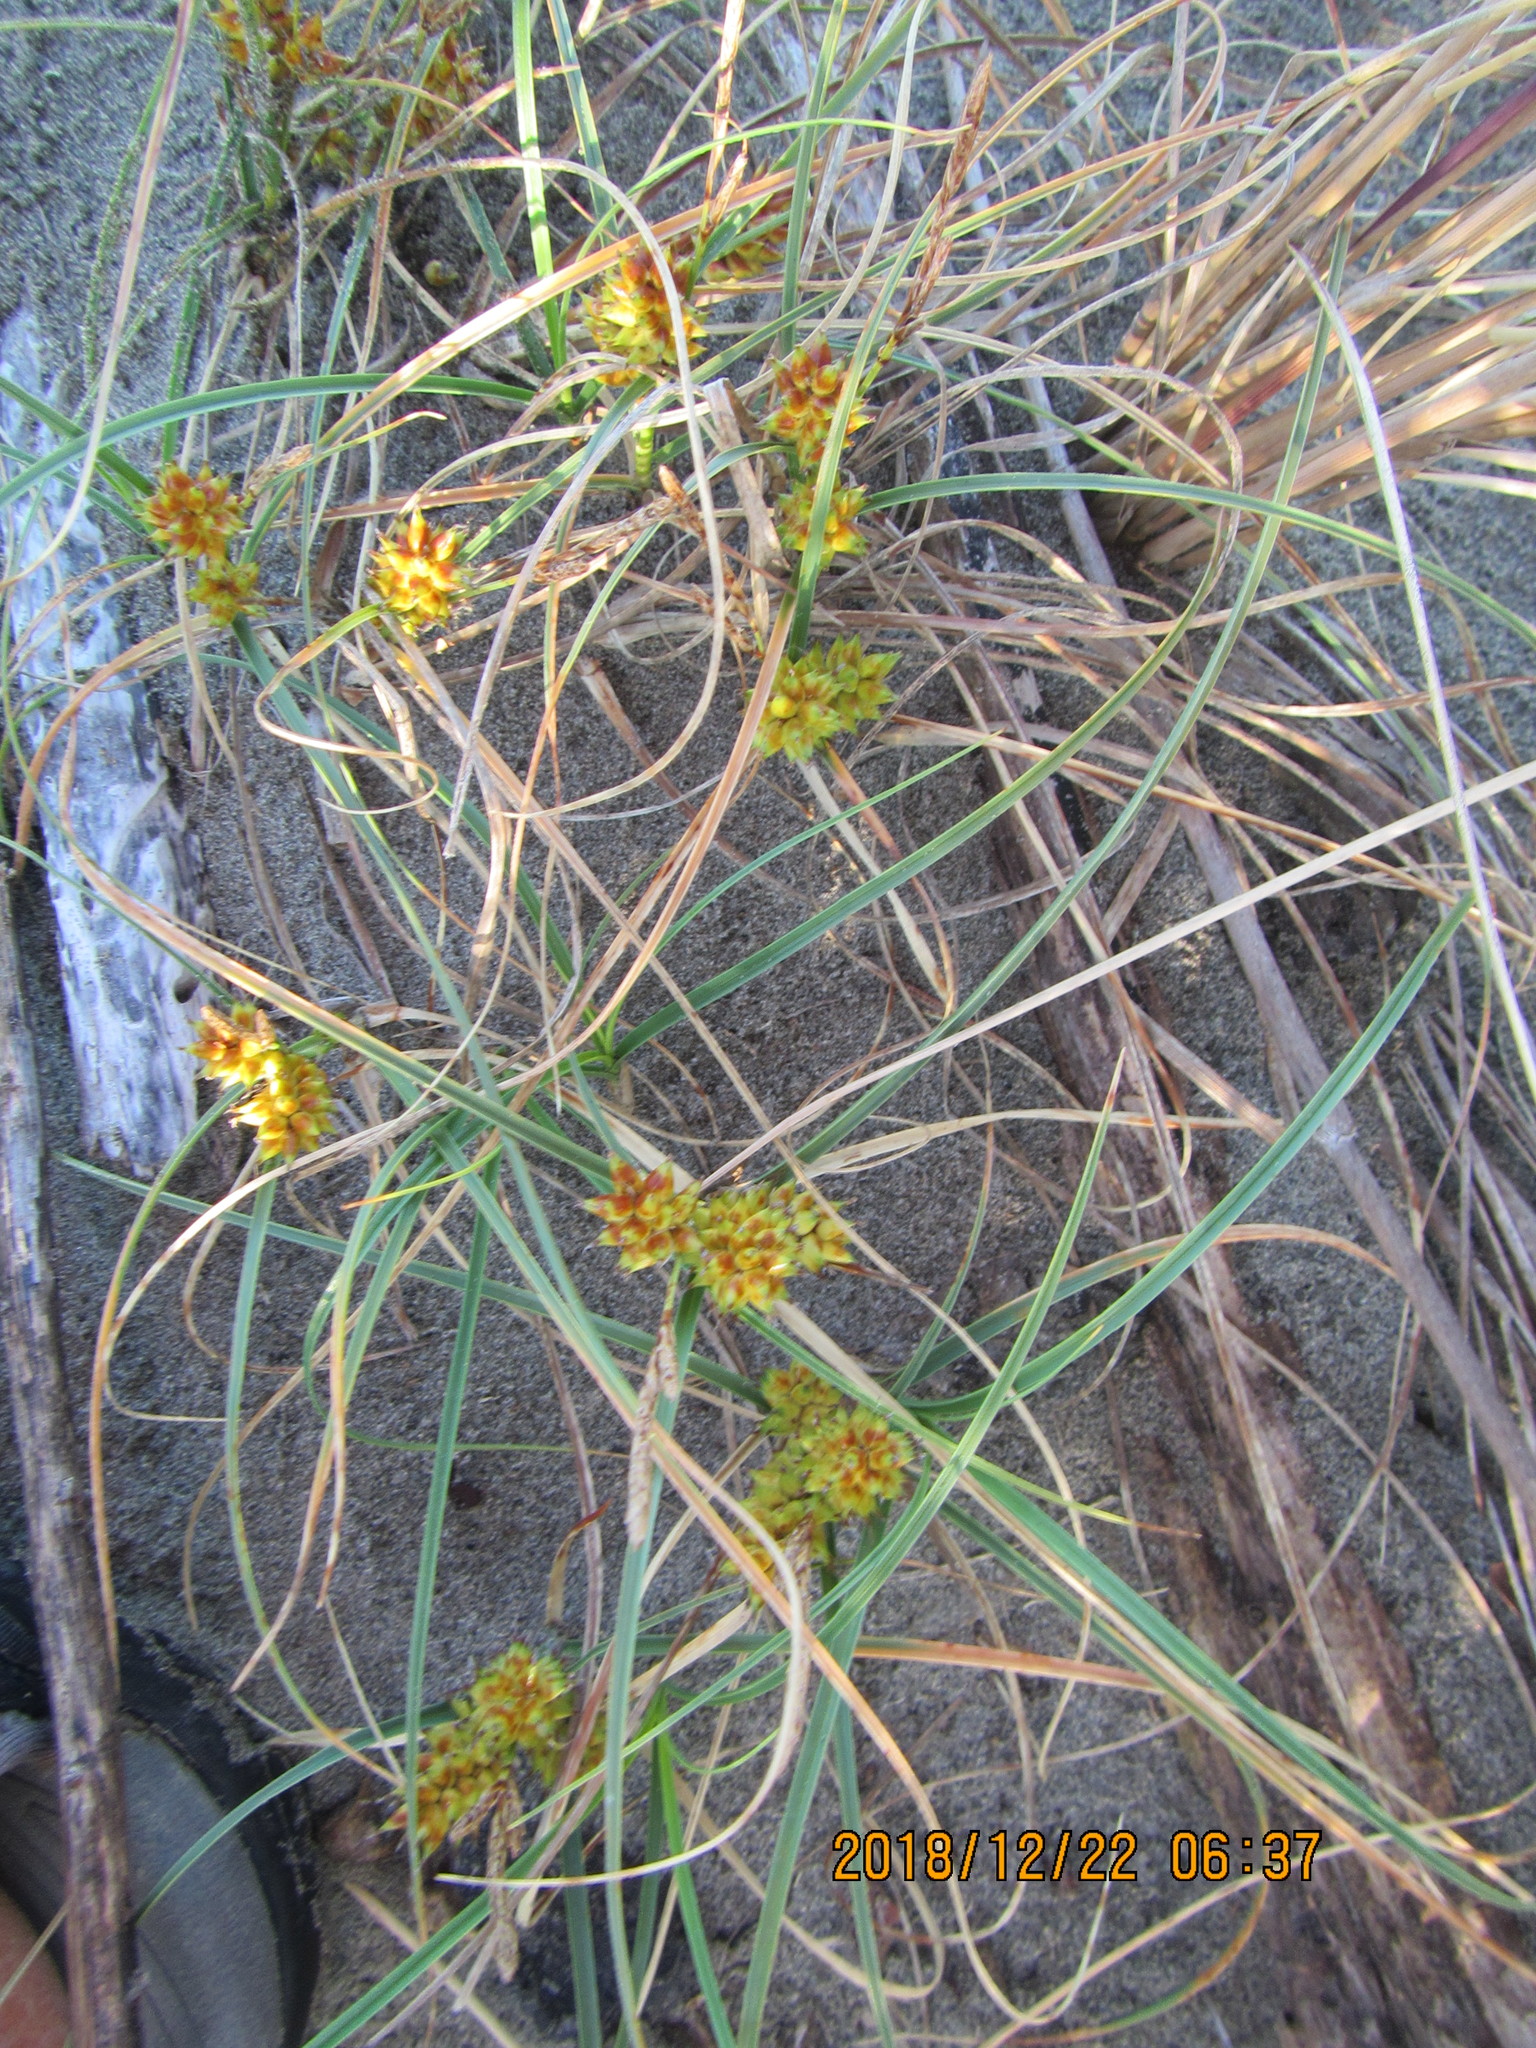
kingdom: Plantae
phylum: Tracheophyta
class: Liliopsida
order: Poales
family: Cyperaceae
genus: Carex
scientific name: Carex pumila
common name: Dwarf sedge
